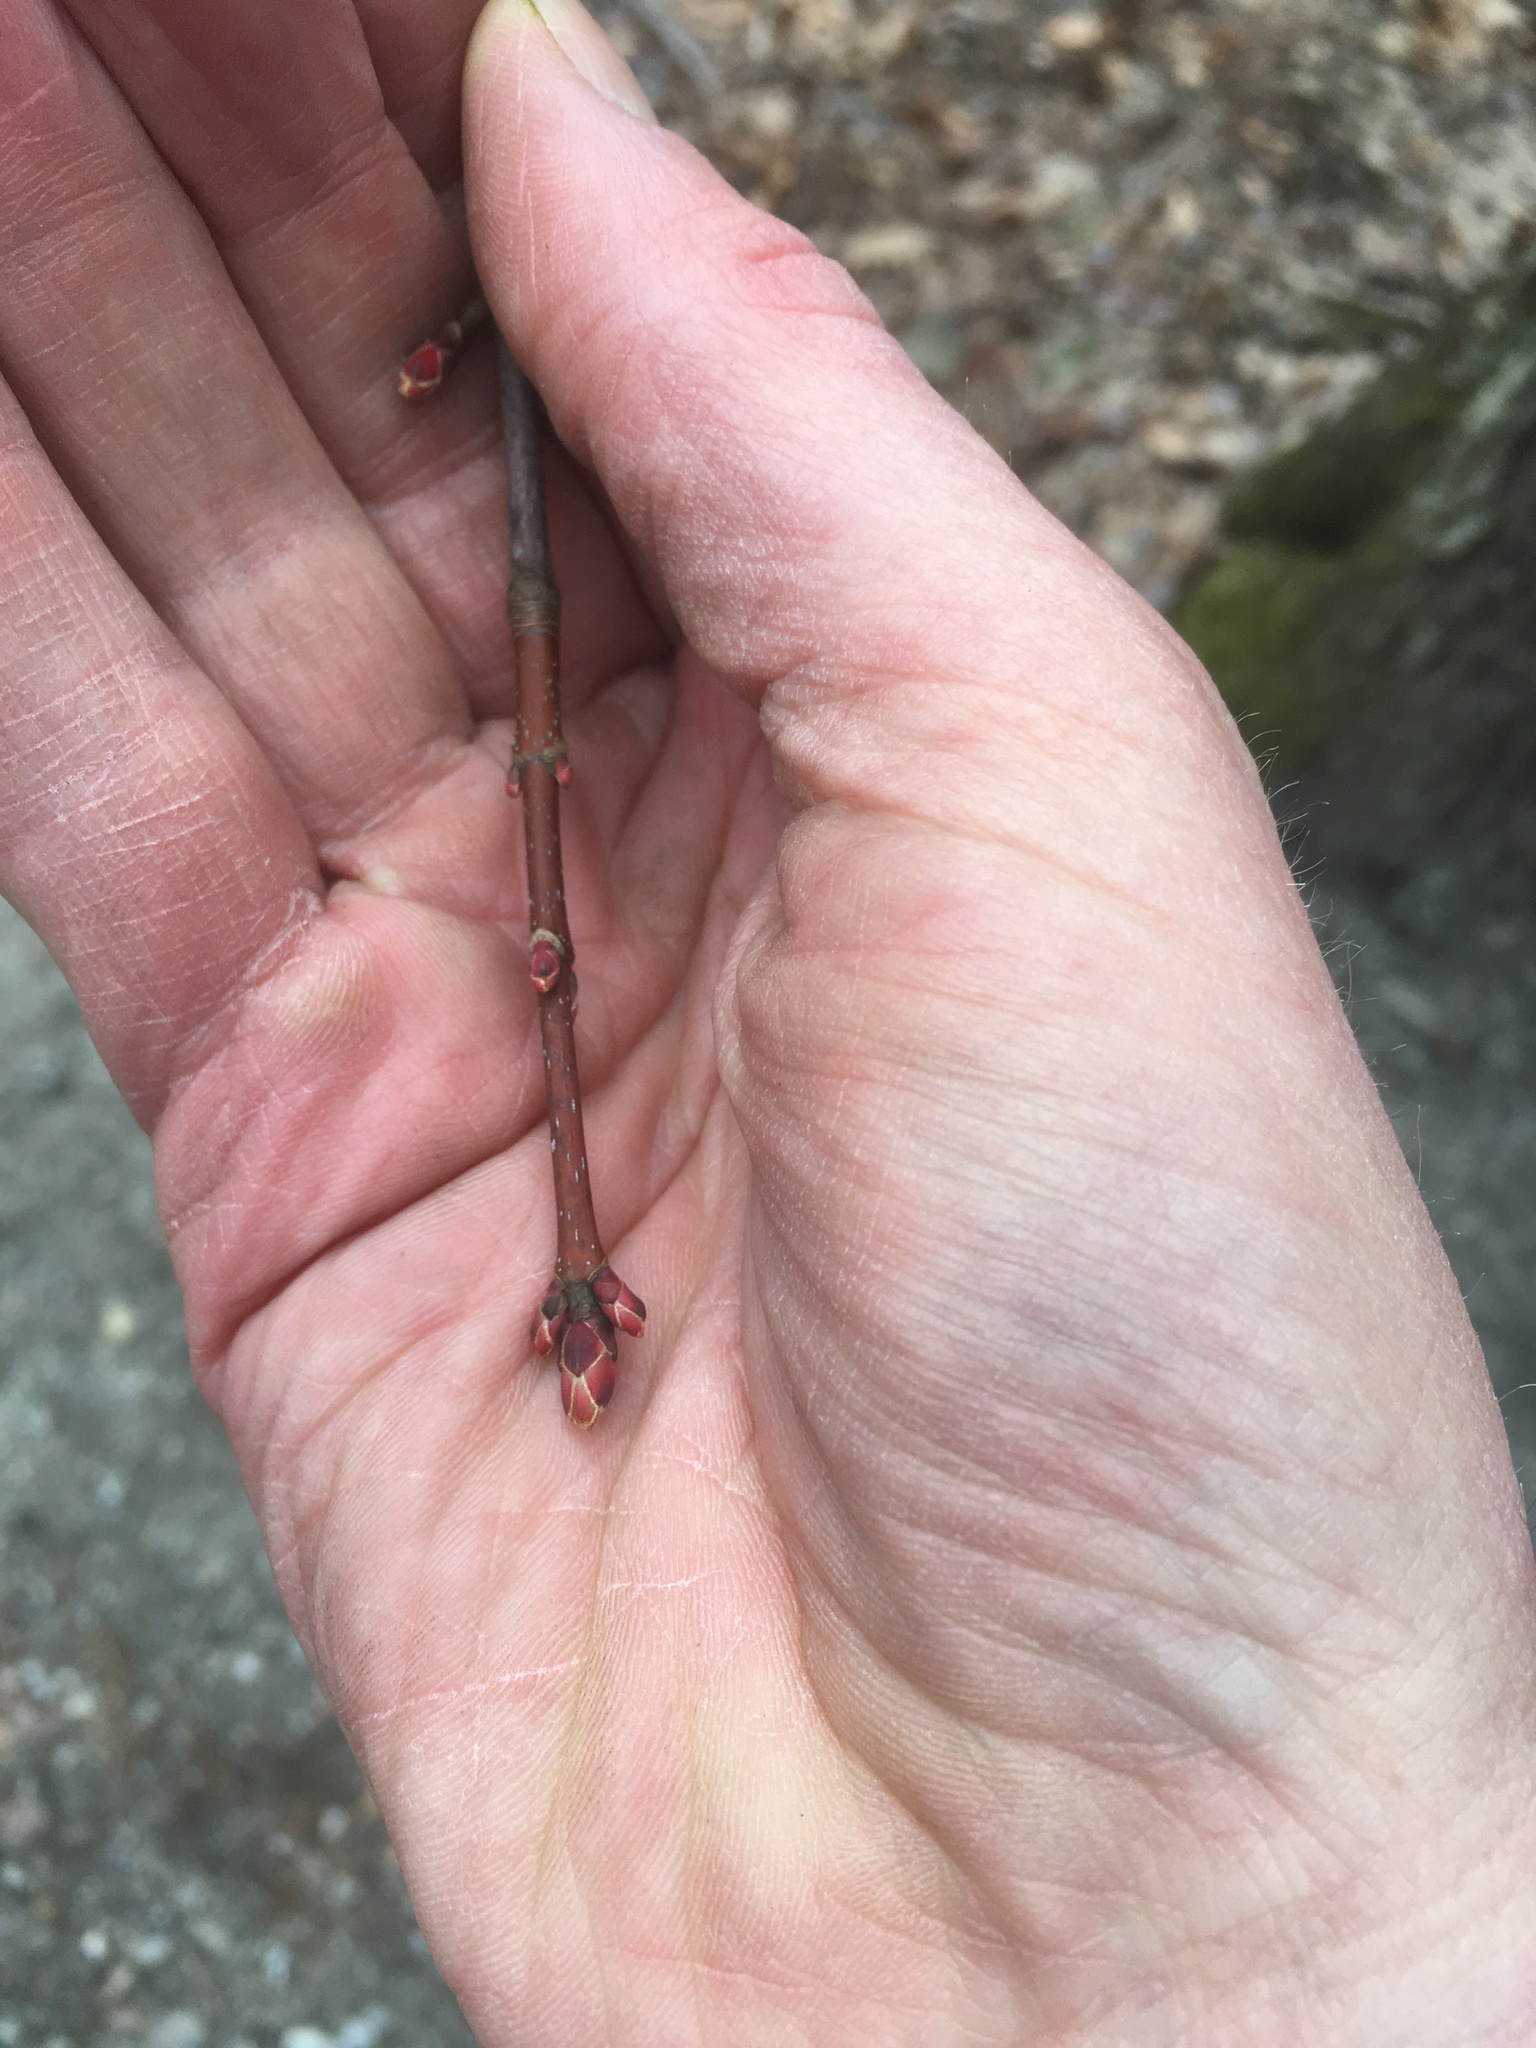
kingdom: Plantae
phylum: Tracheophyta
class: Magnoliopsida
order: Sapindales
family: Sapindaceae
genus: Acer
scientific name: Acer rubrum
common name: Red maple
